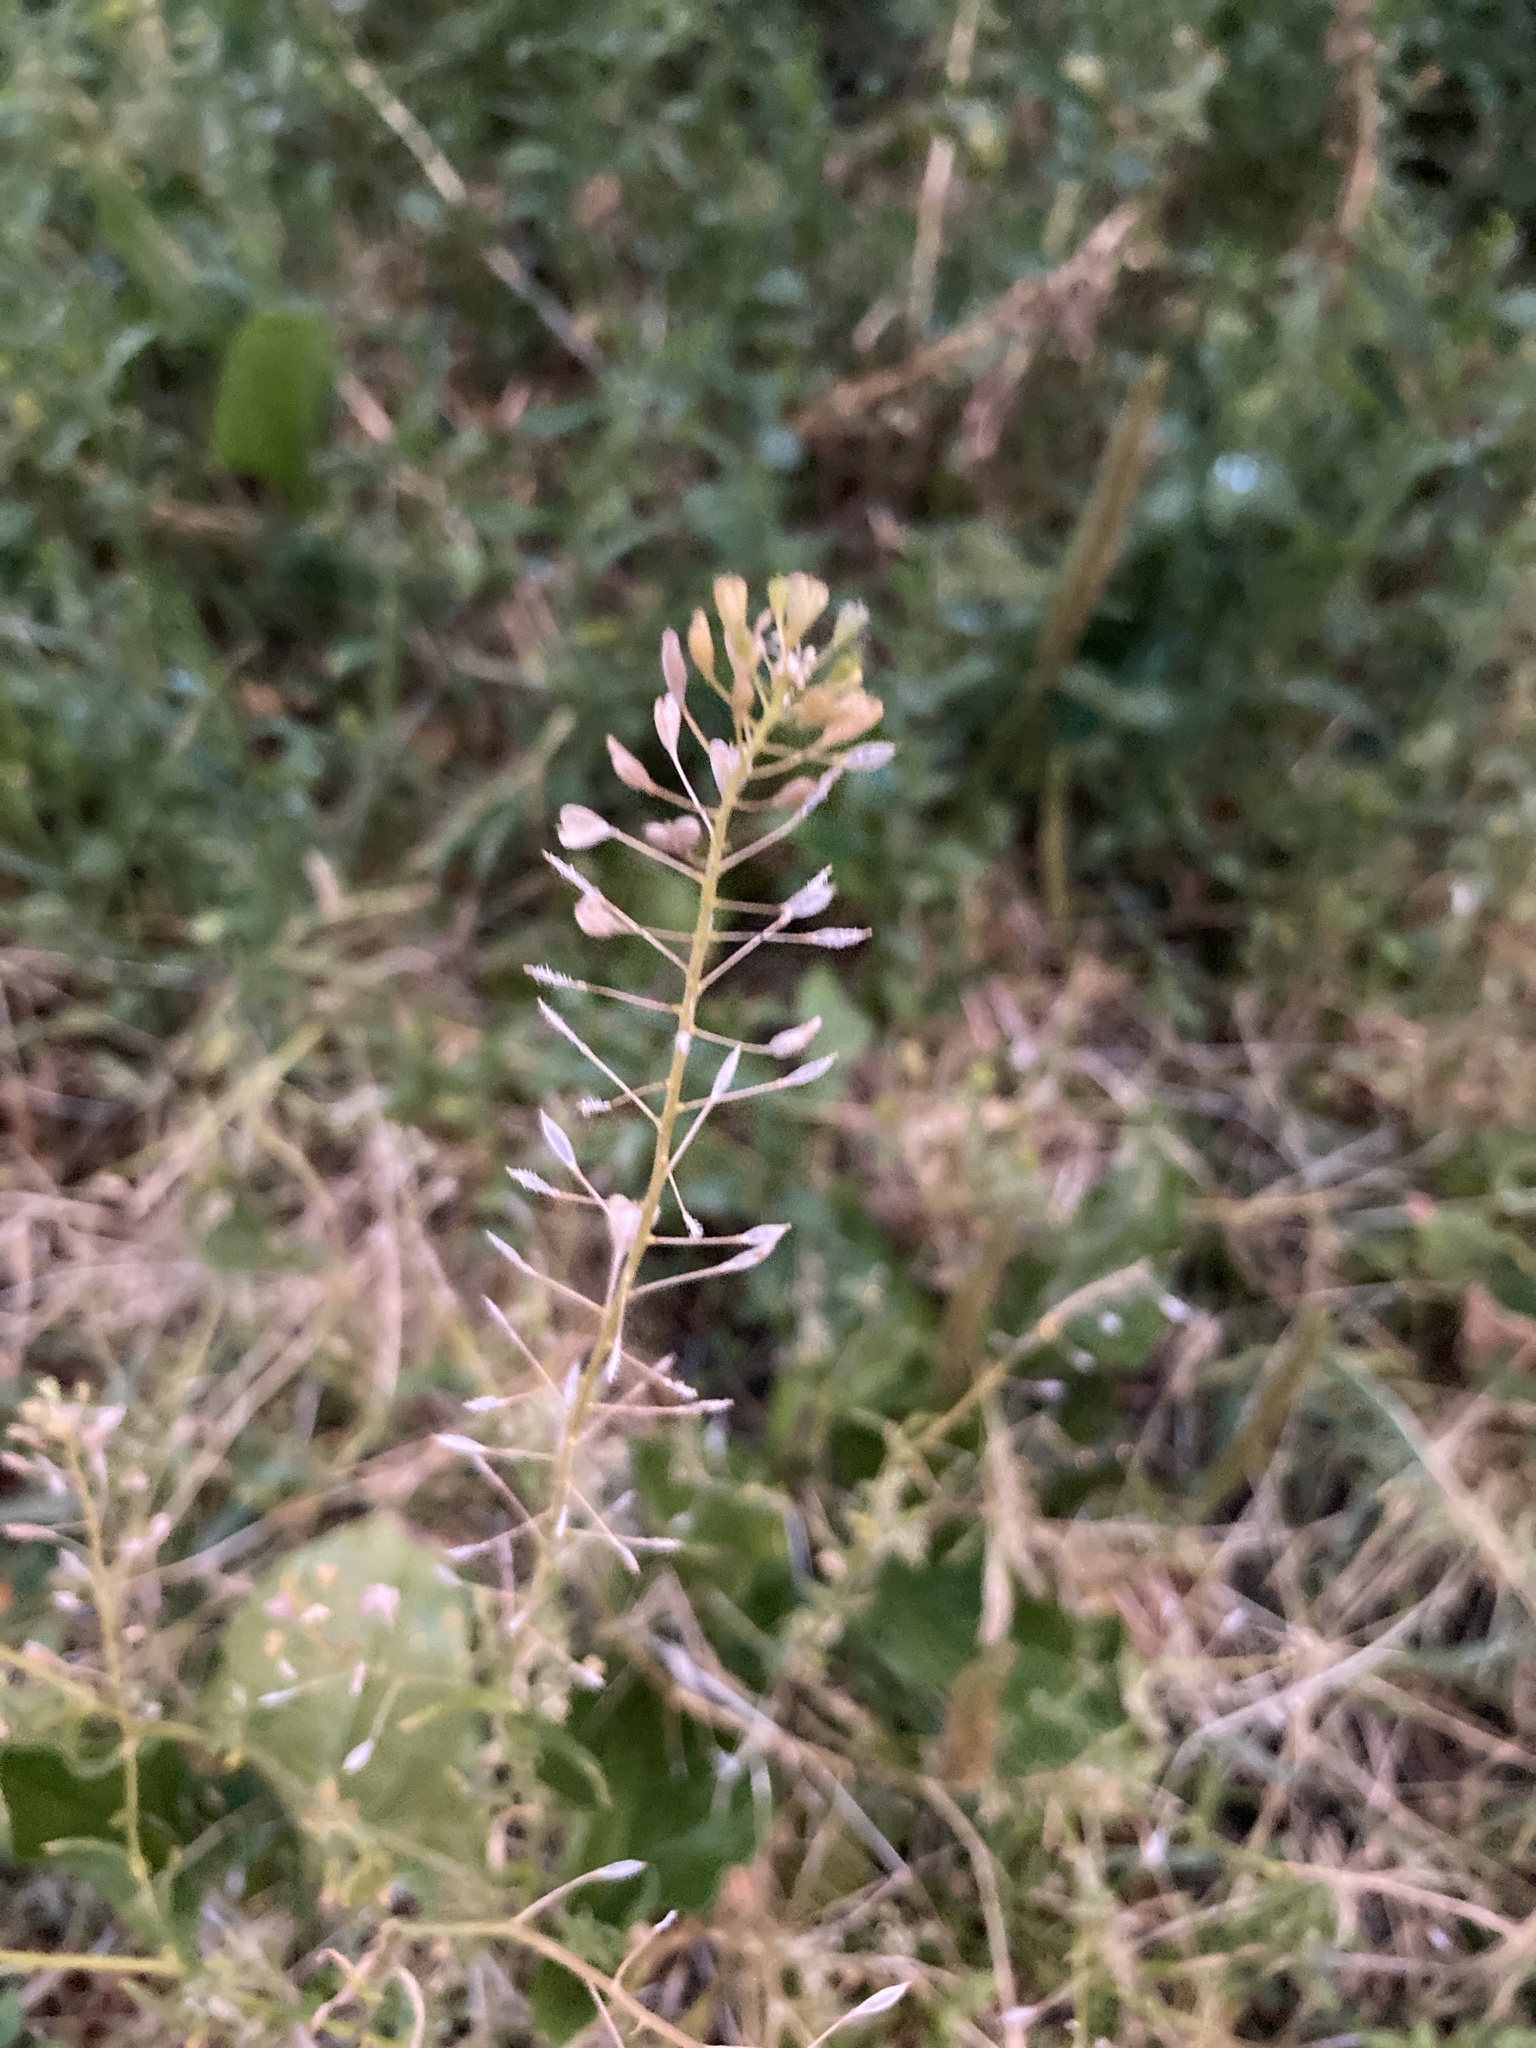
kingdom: Plantae
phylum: Tracheophyta
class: Magnoliopsida
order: Brassicales
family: Brassicaceae
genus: Capsella
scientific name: Capsella bursa-pastoris
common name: Shepherd's purse
